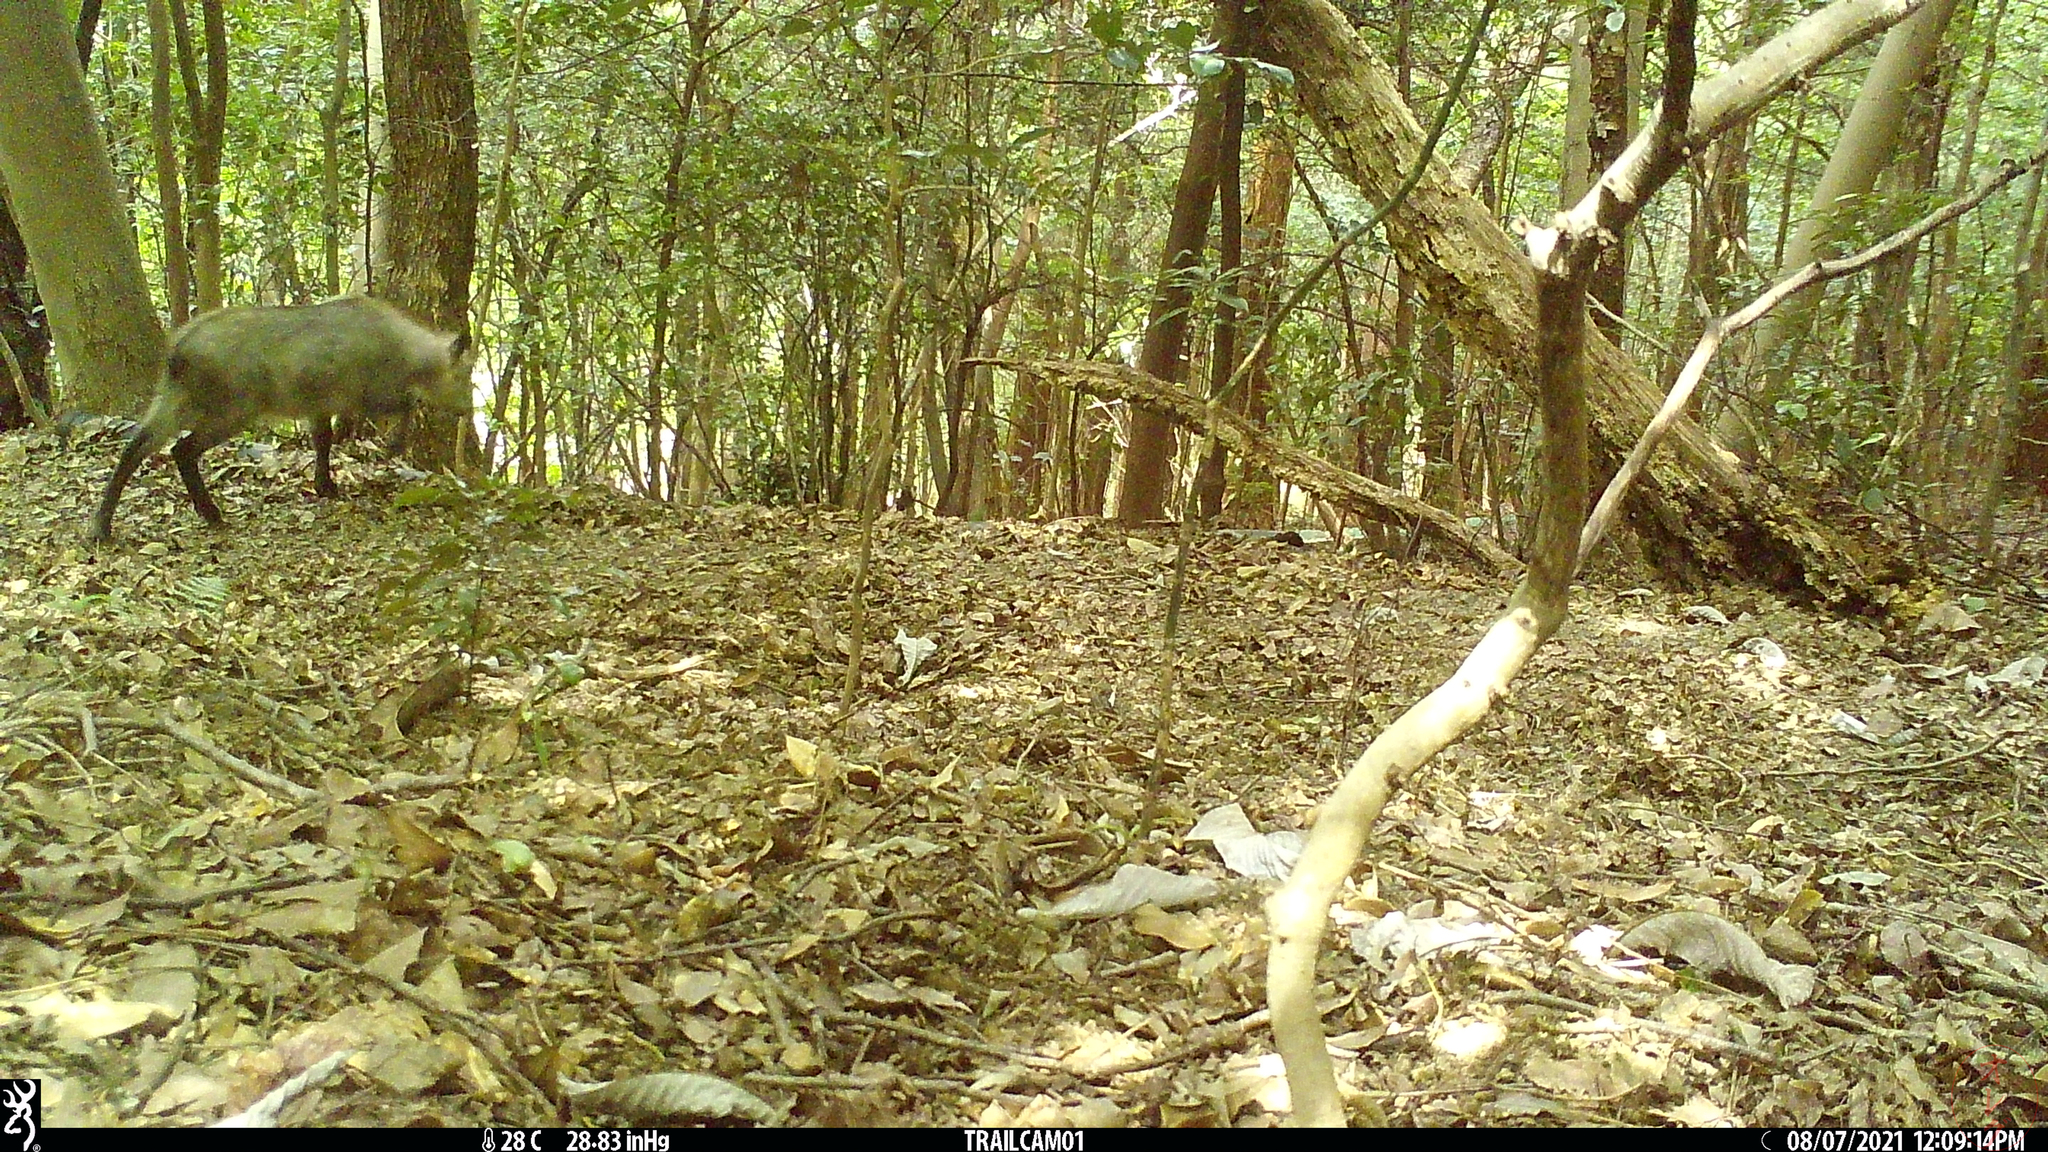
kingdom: Animalia
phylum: Chordata
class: Mammalia
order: Artiodactyla
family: Bovidae
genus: Capricornis
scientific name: Capricornis crispus
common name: Japanese serow
